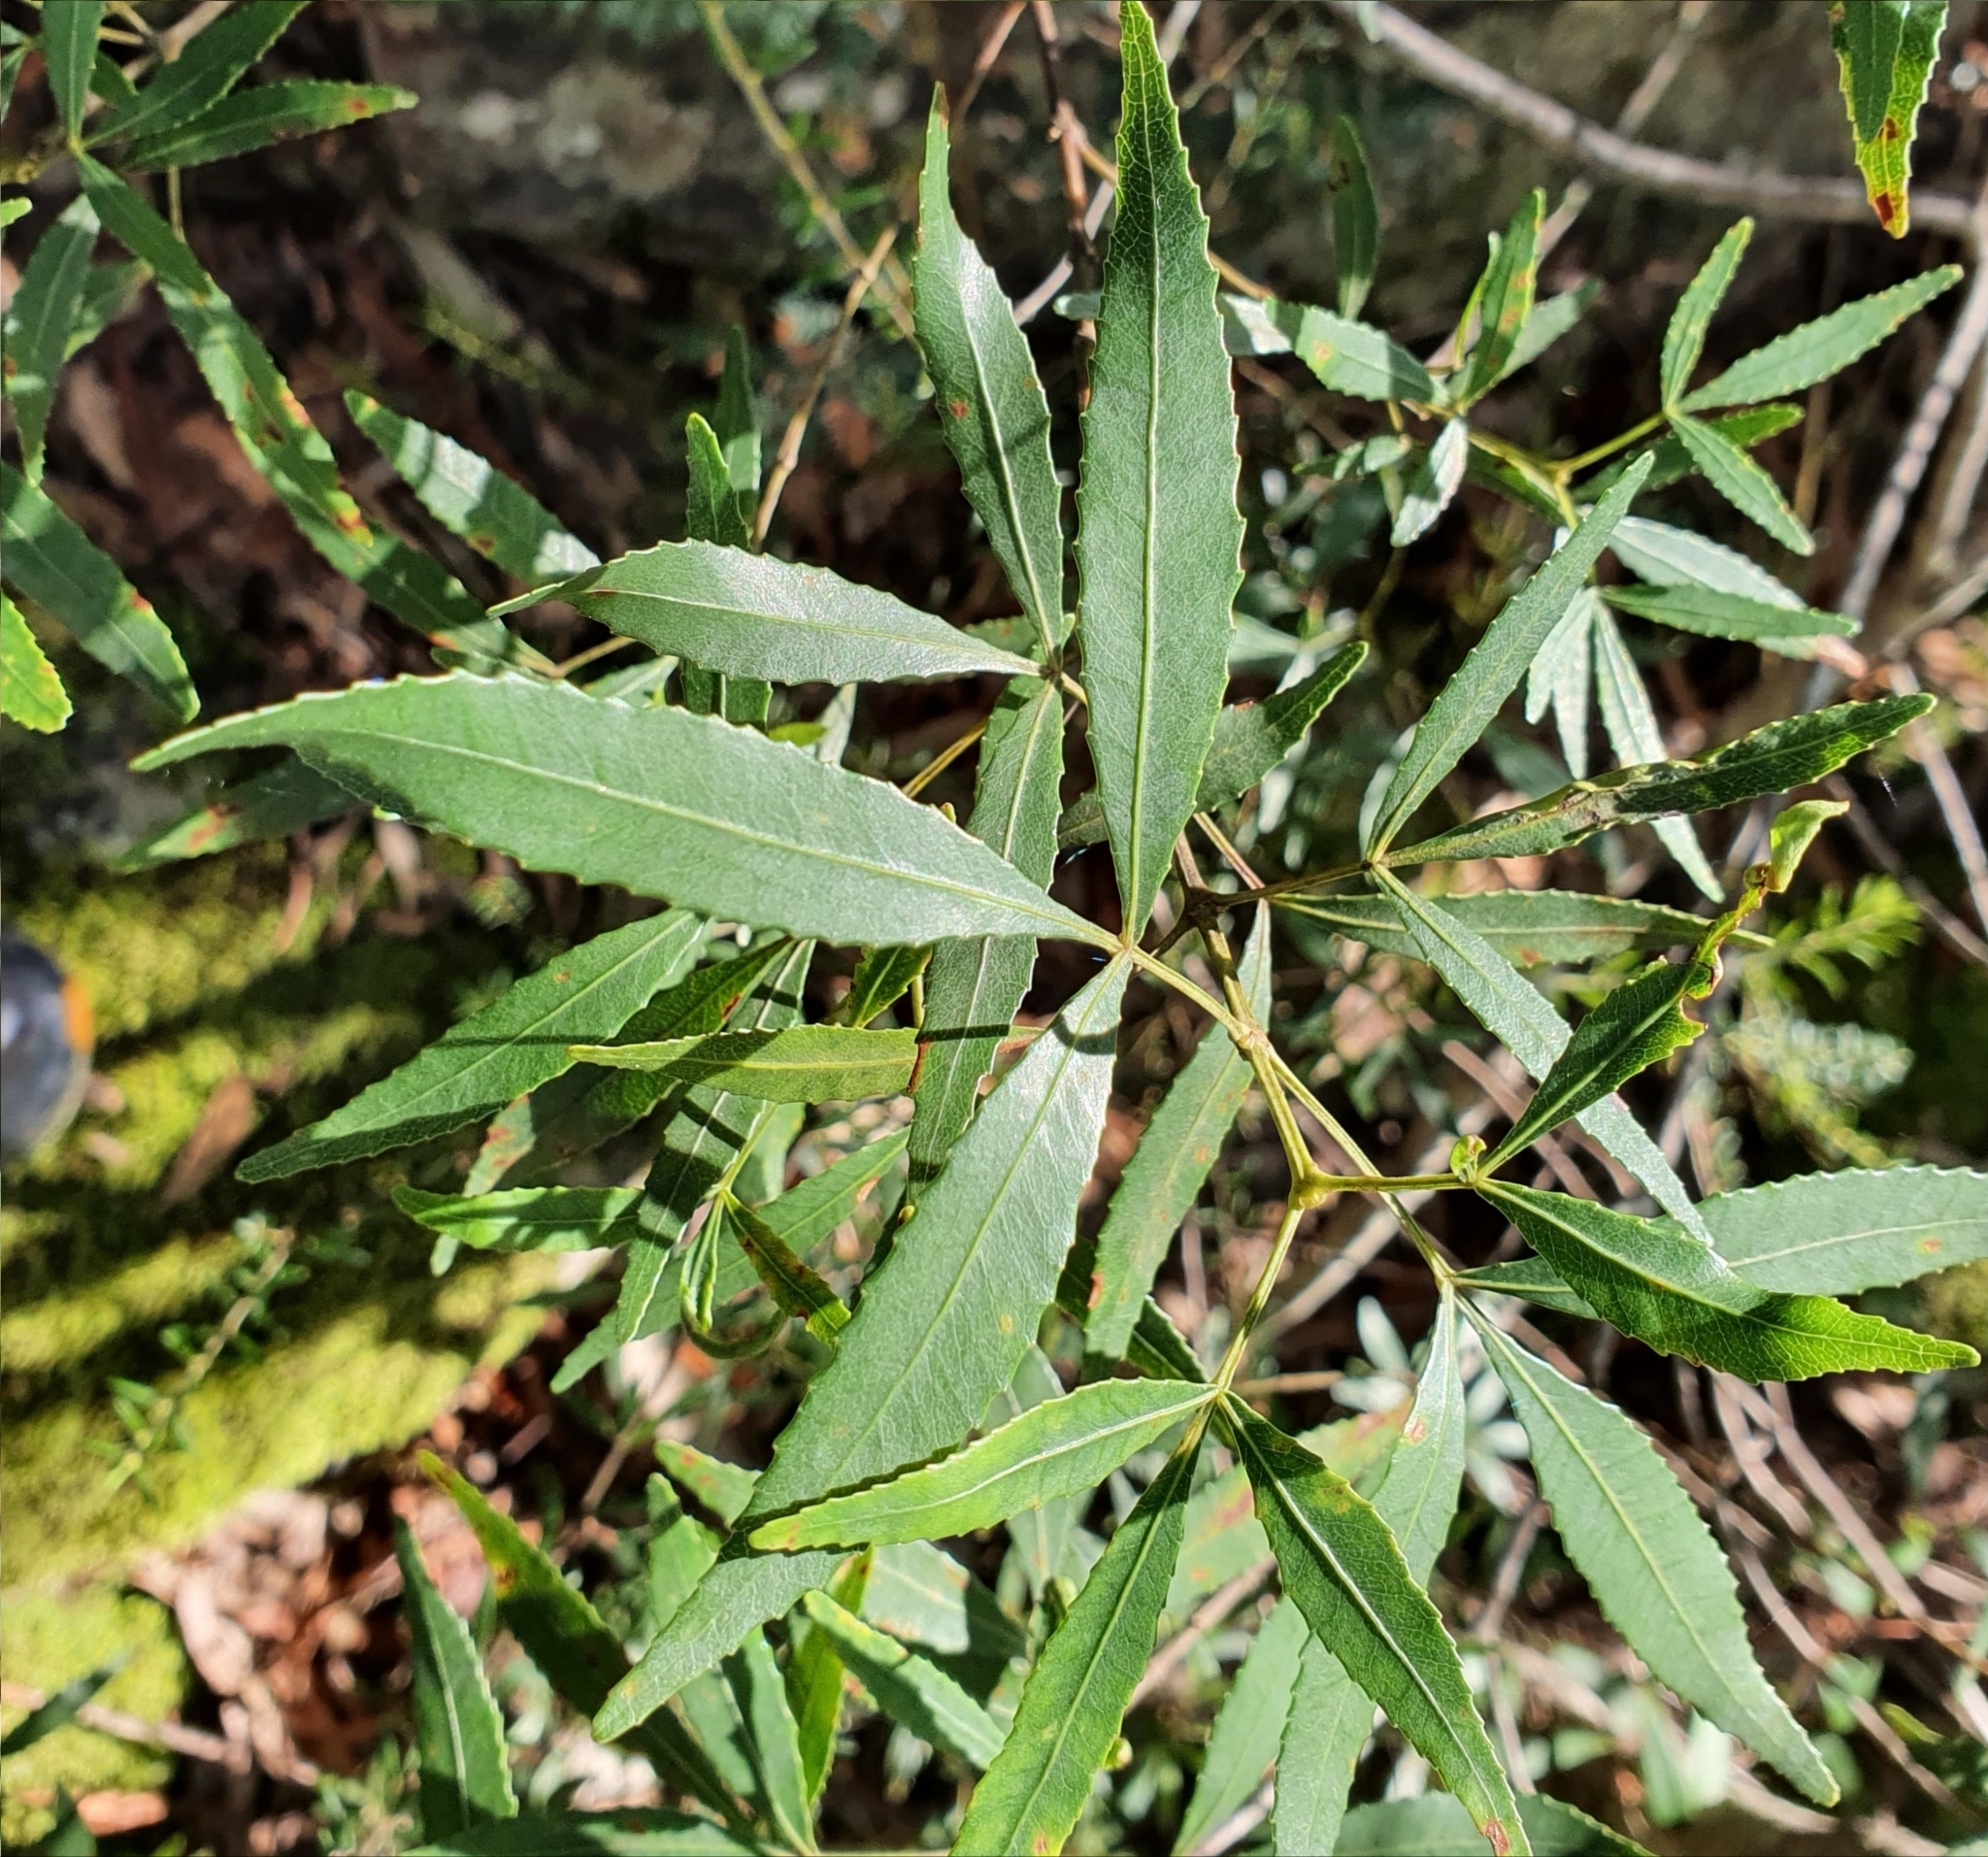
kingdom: Plantae
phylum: Tracheophyta
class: Magnoliopsida
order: Oxalidales
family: Cunoniaceae
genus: Ceratopetalum
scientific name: Ceratopetalum gummiferum
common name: Christmasbush
